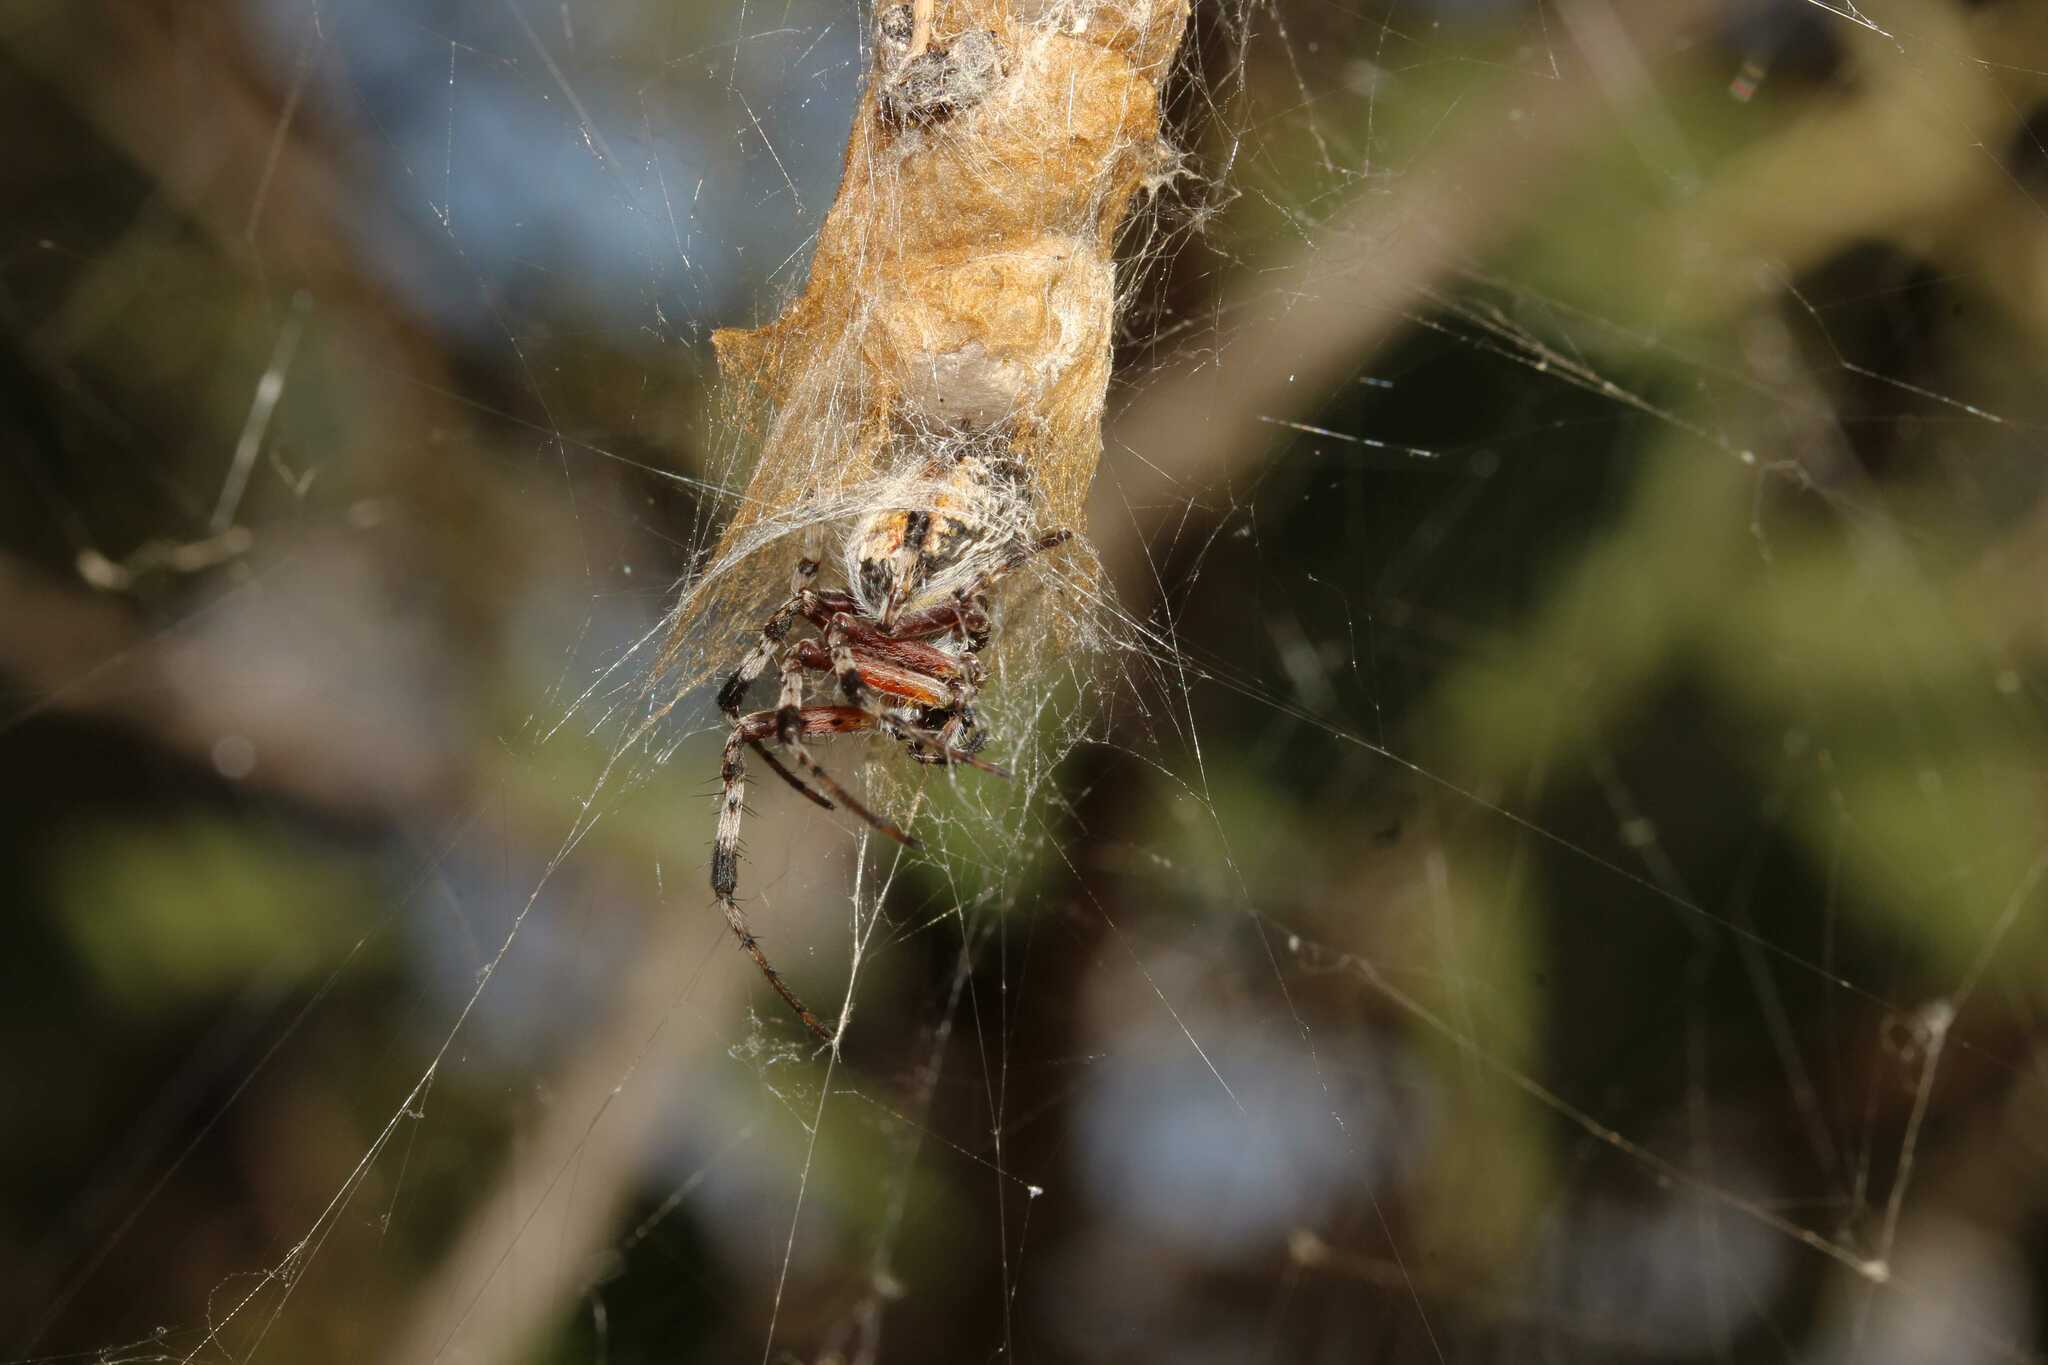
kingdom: Animalia
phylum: Arthropoda
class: Arachnida
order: Araneae
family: Araneidae
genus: Metepeira
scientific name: Metepeira
